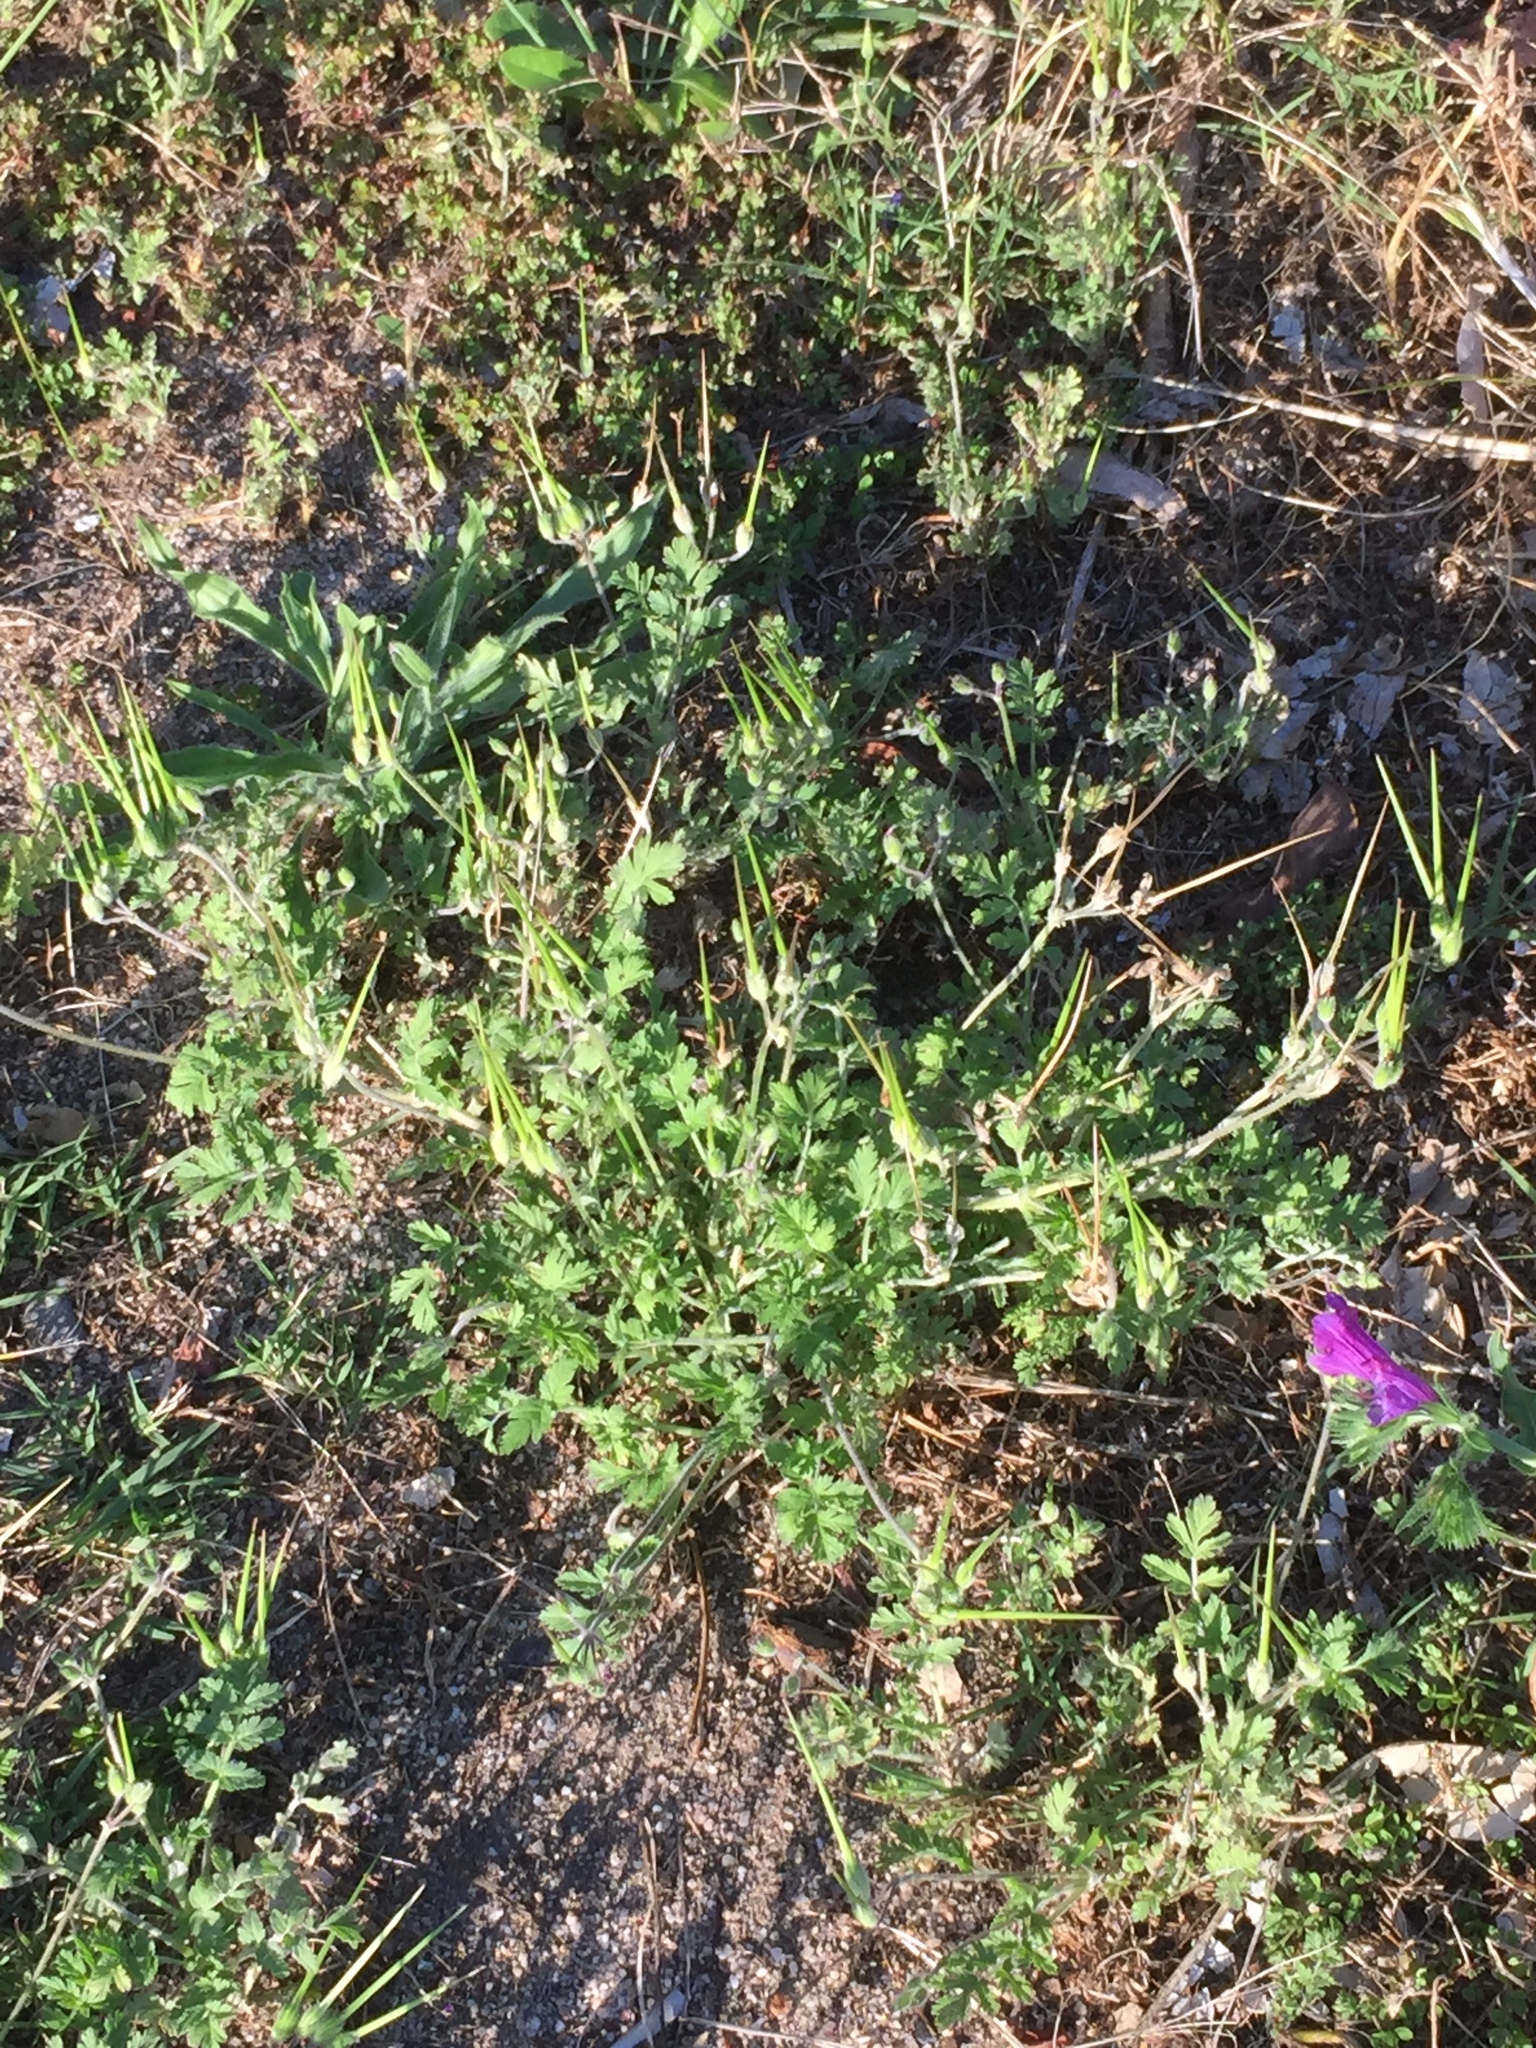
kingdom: Plantae
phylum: Tracheophyta
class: Magnoliopsida
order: Geraniales
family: Geraniaceae
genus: Erodium
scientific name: Erodium moschatum
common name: Musk stork's-bill
